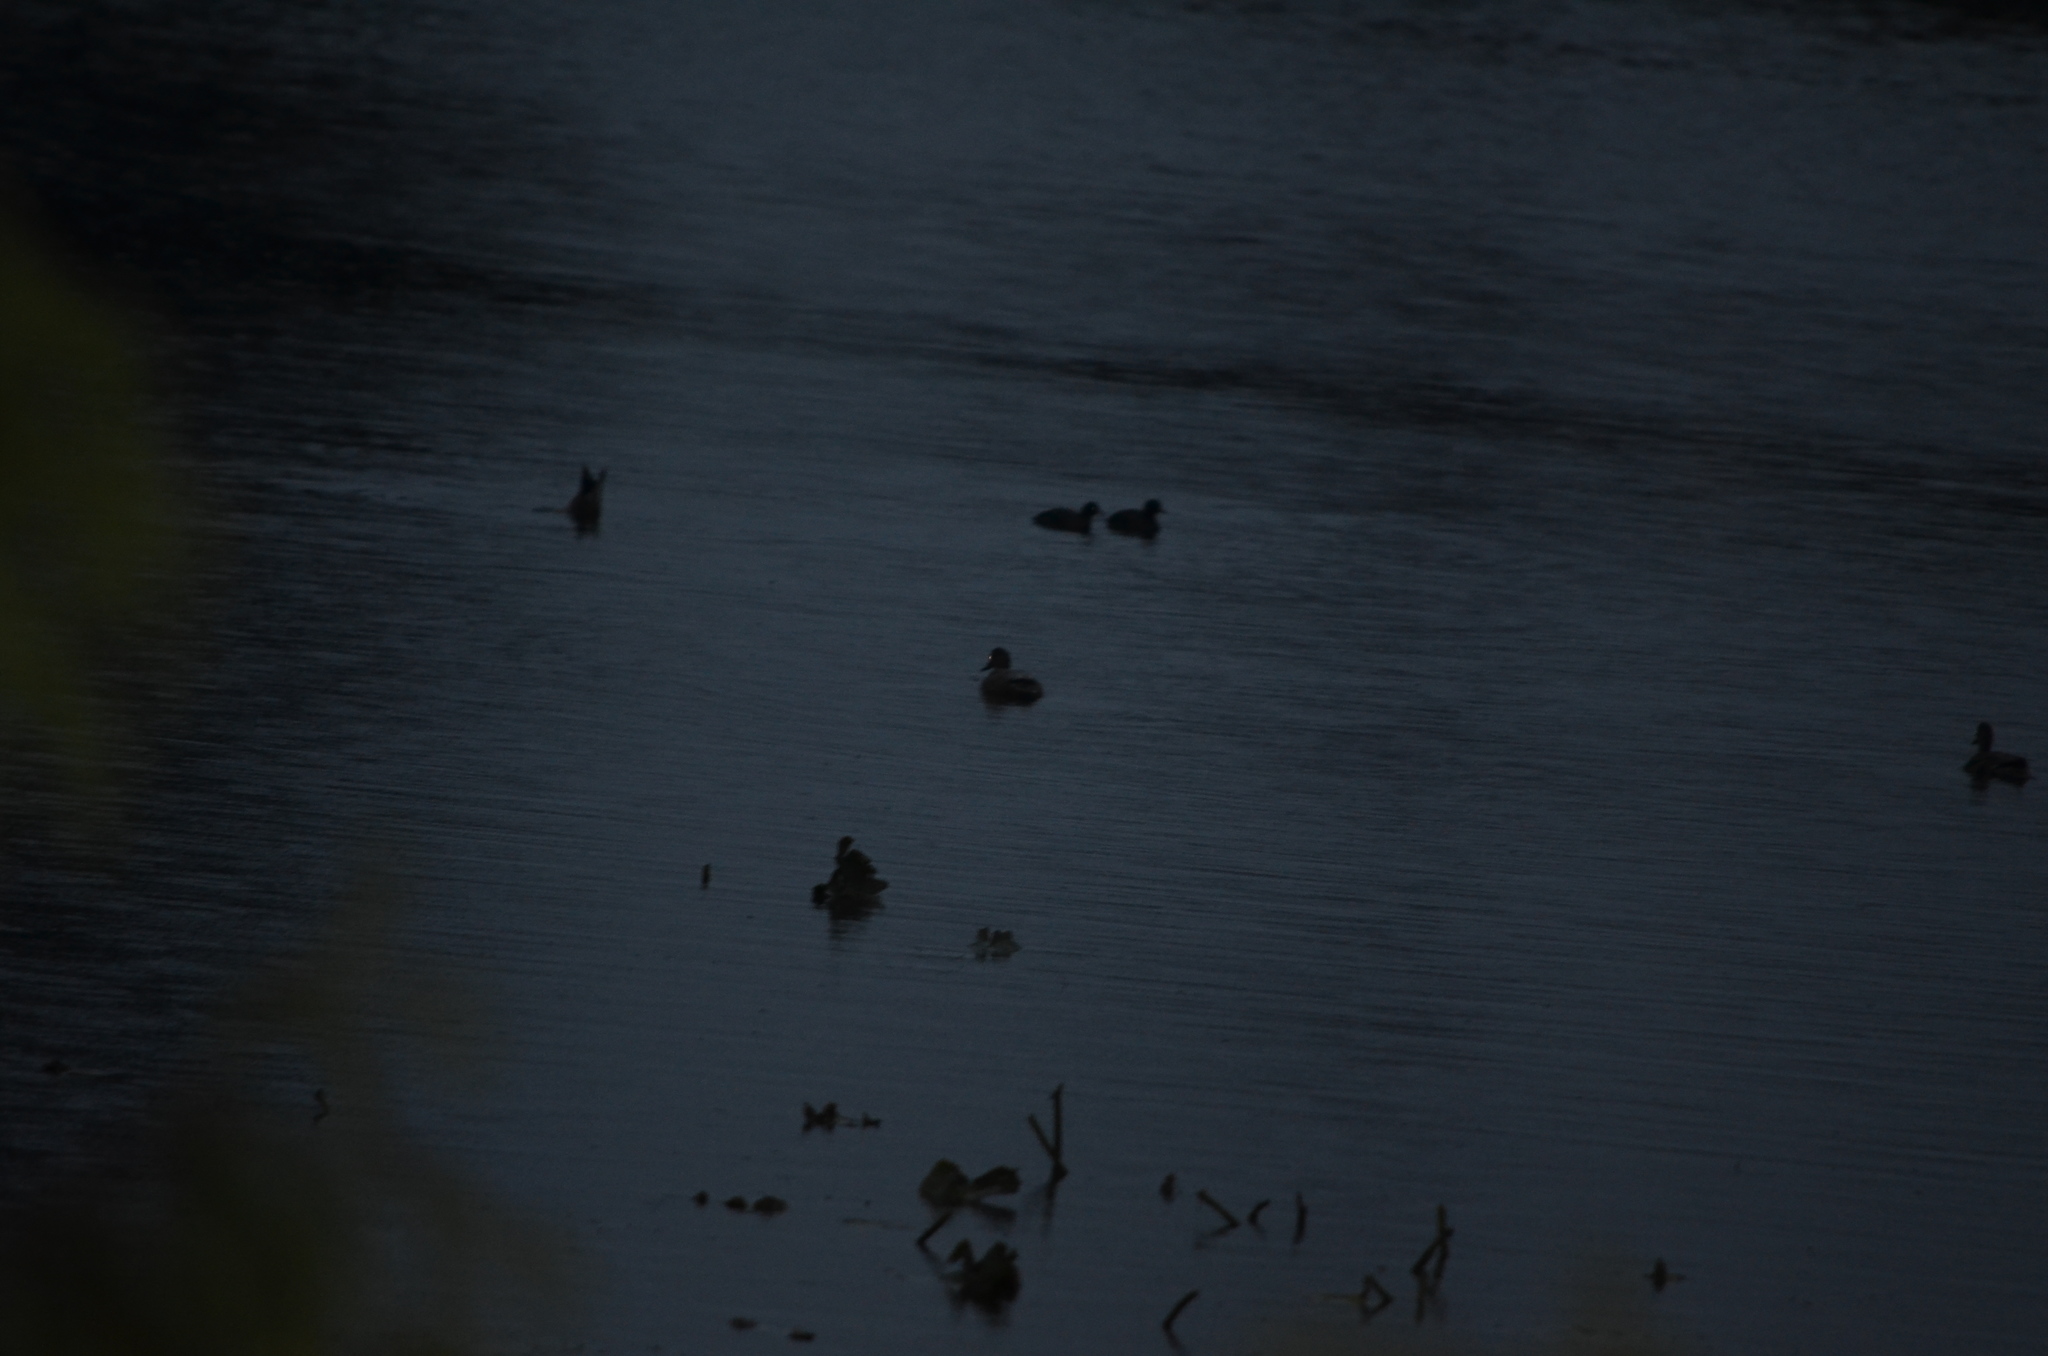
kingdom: Animalia
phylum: Chordata
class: Aves
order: Gruiformes
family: Rallidae
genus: Fulica
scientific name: Fulica americana
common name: American coot
